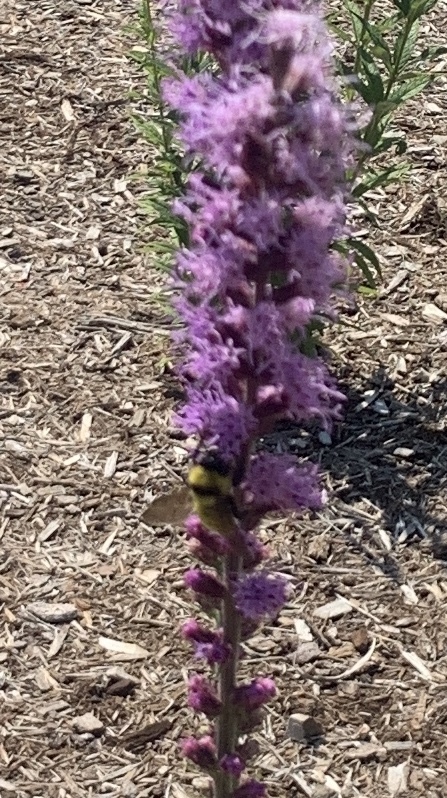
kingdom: Animalia
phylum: Arthropoda
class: Insecta
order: Hymenoptera
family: Apidae
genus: Bombus
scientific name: Bombus fervidus
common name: Yellow bumble bee
